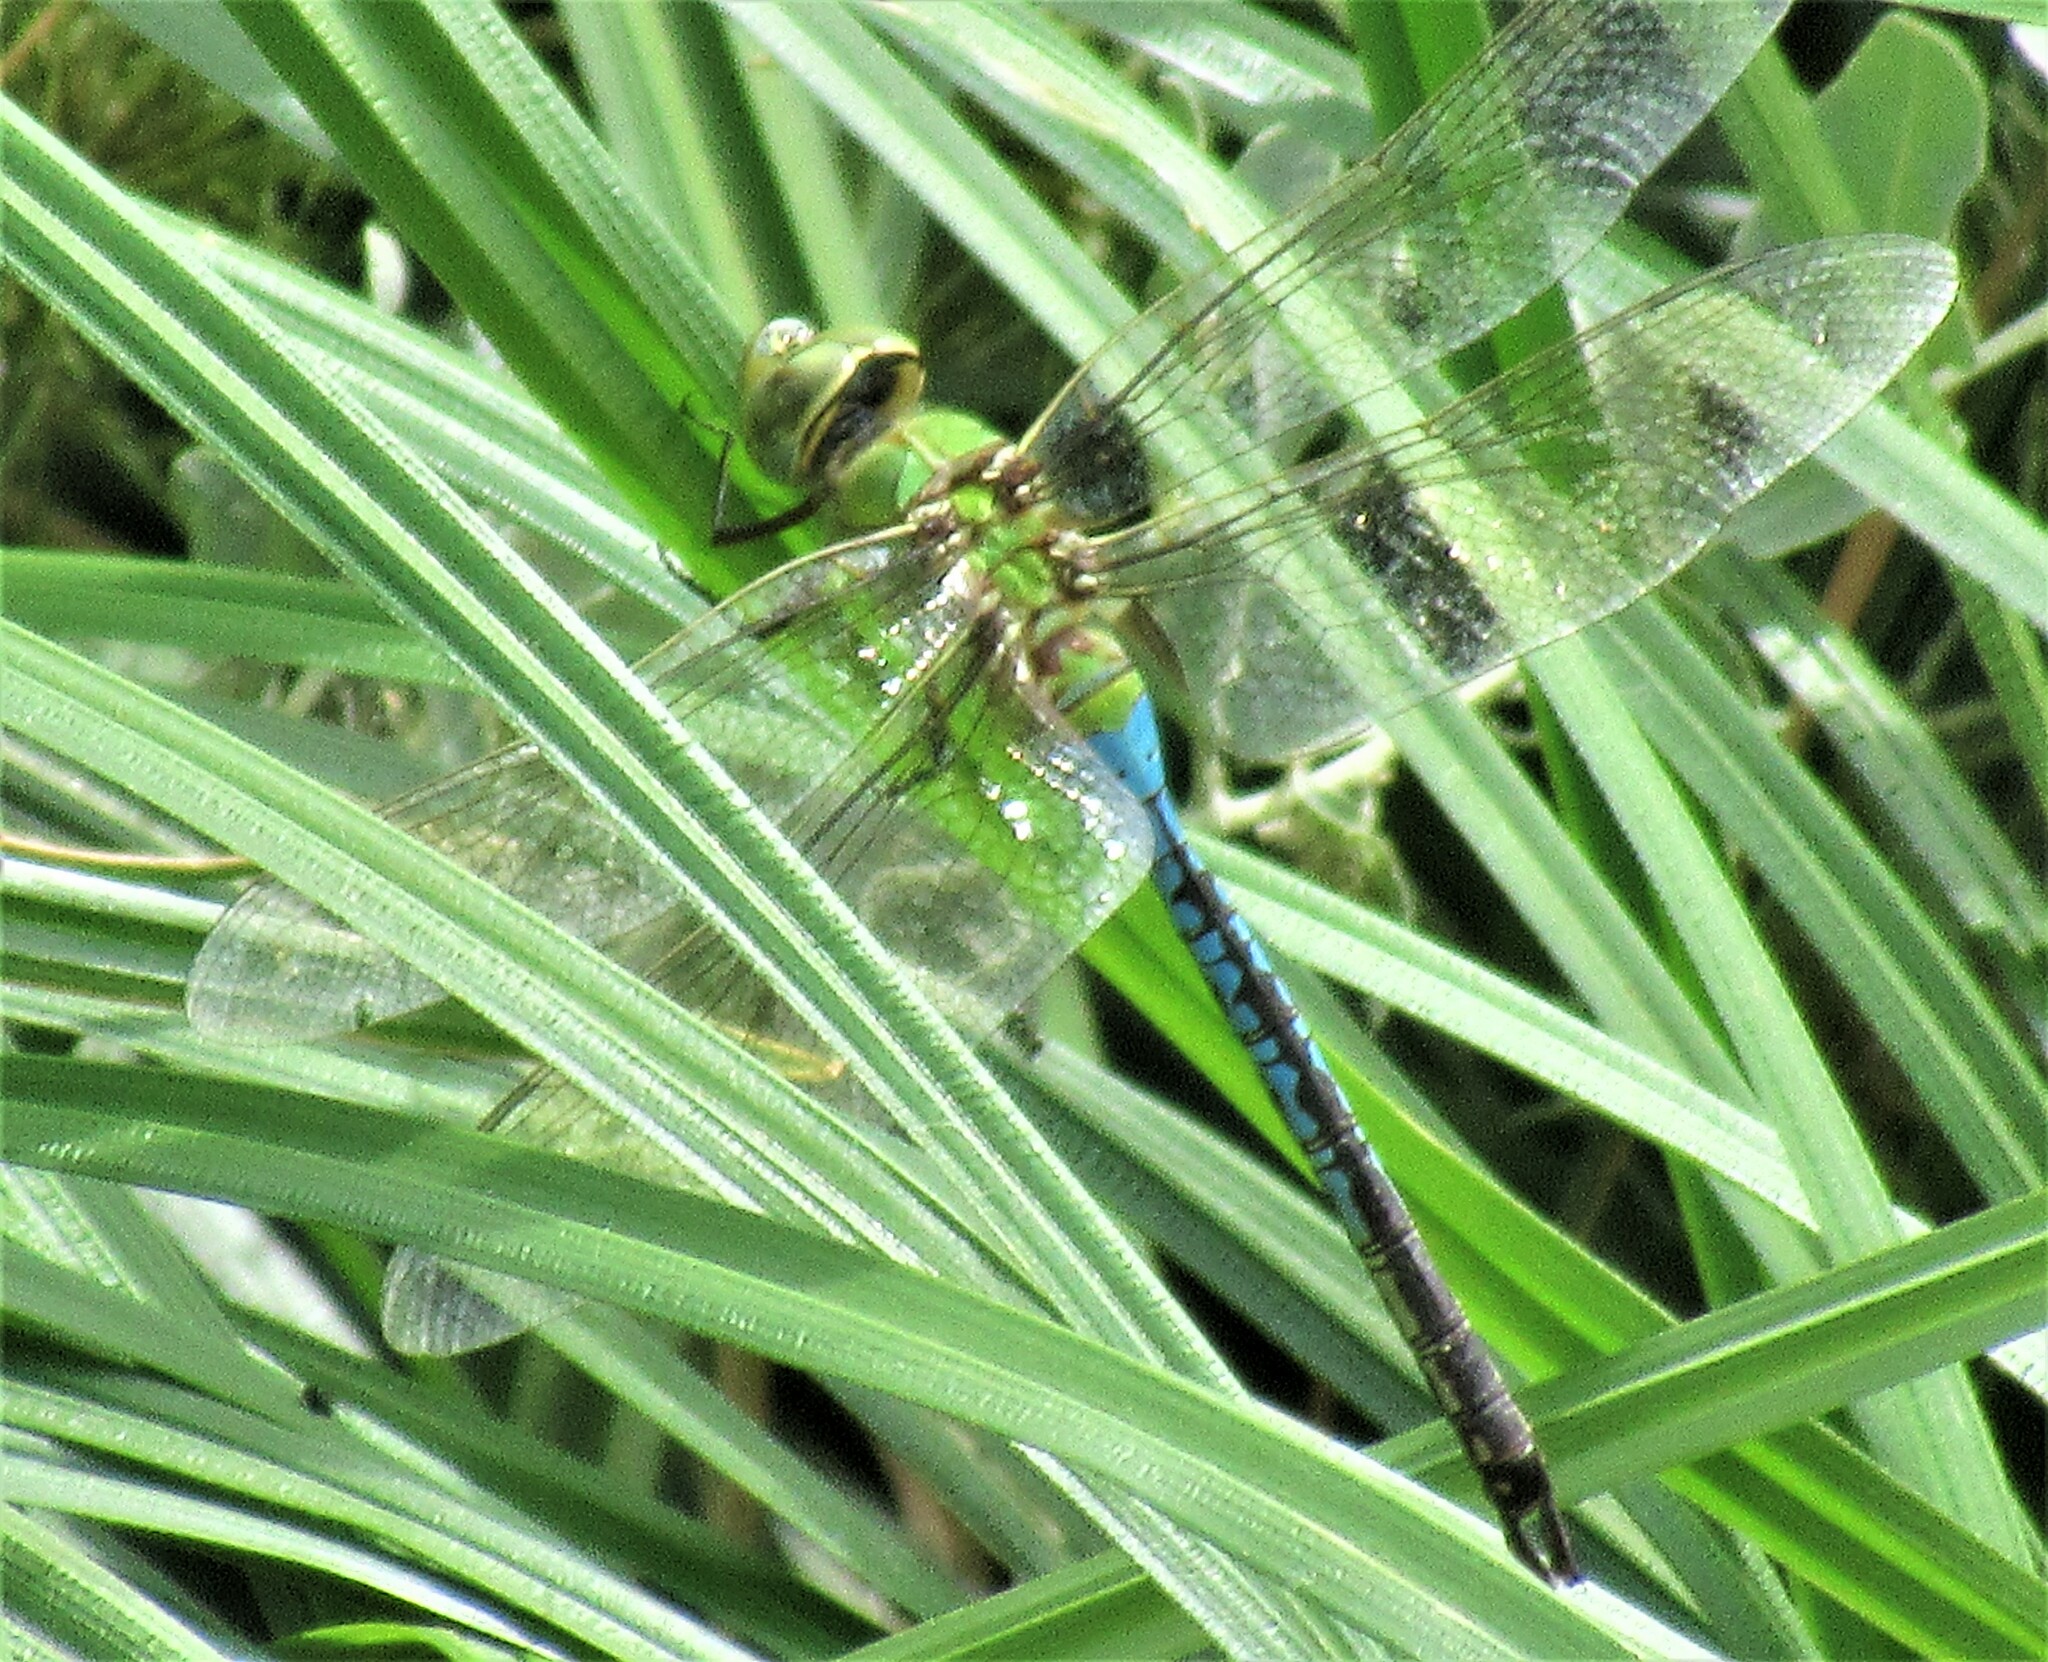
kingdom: Animalia
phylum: Arthropoda
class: Insecta
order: Odonata
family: Aeshnidae
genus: Anax
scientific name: Anax junius
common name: Common green darner
